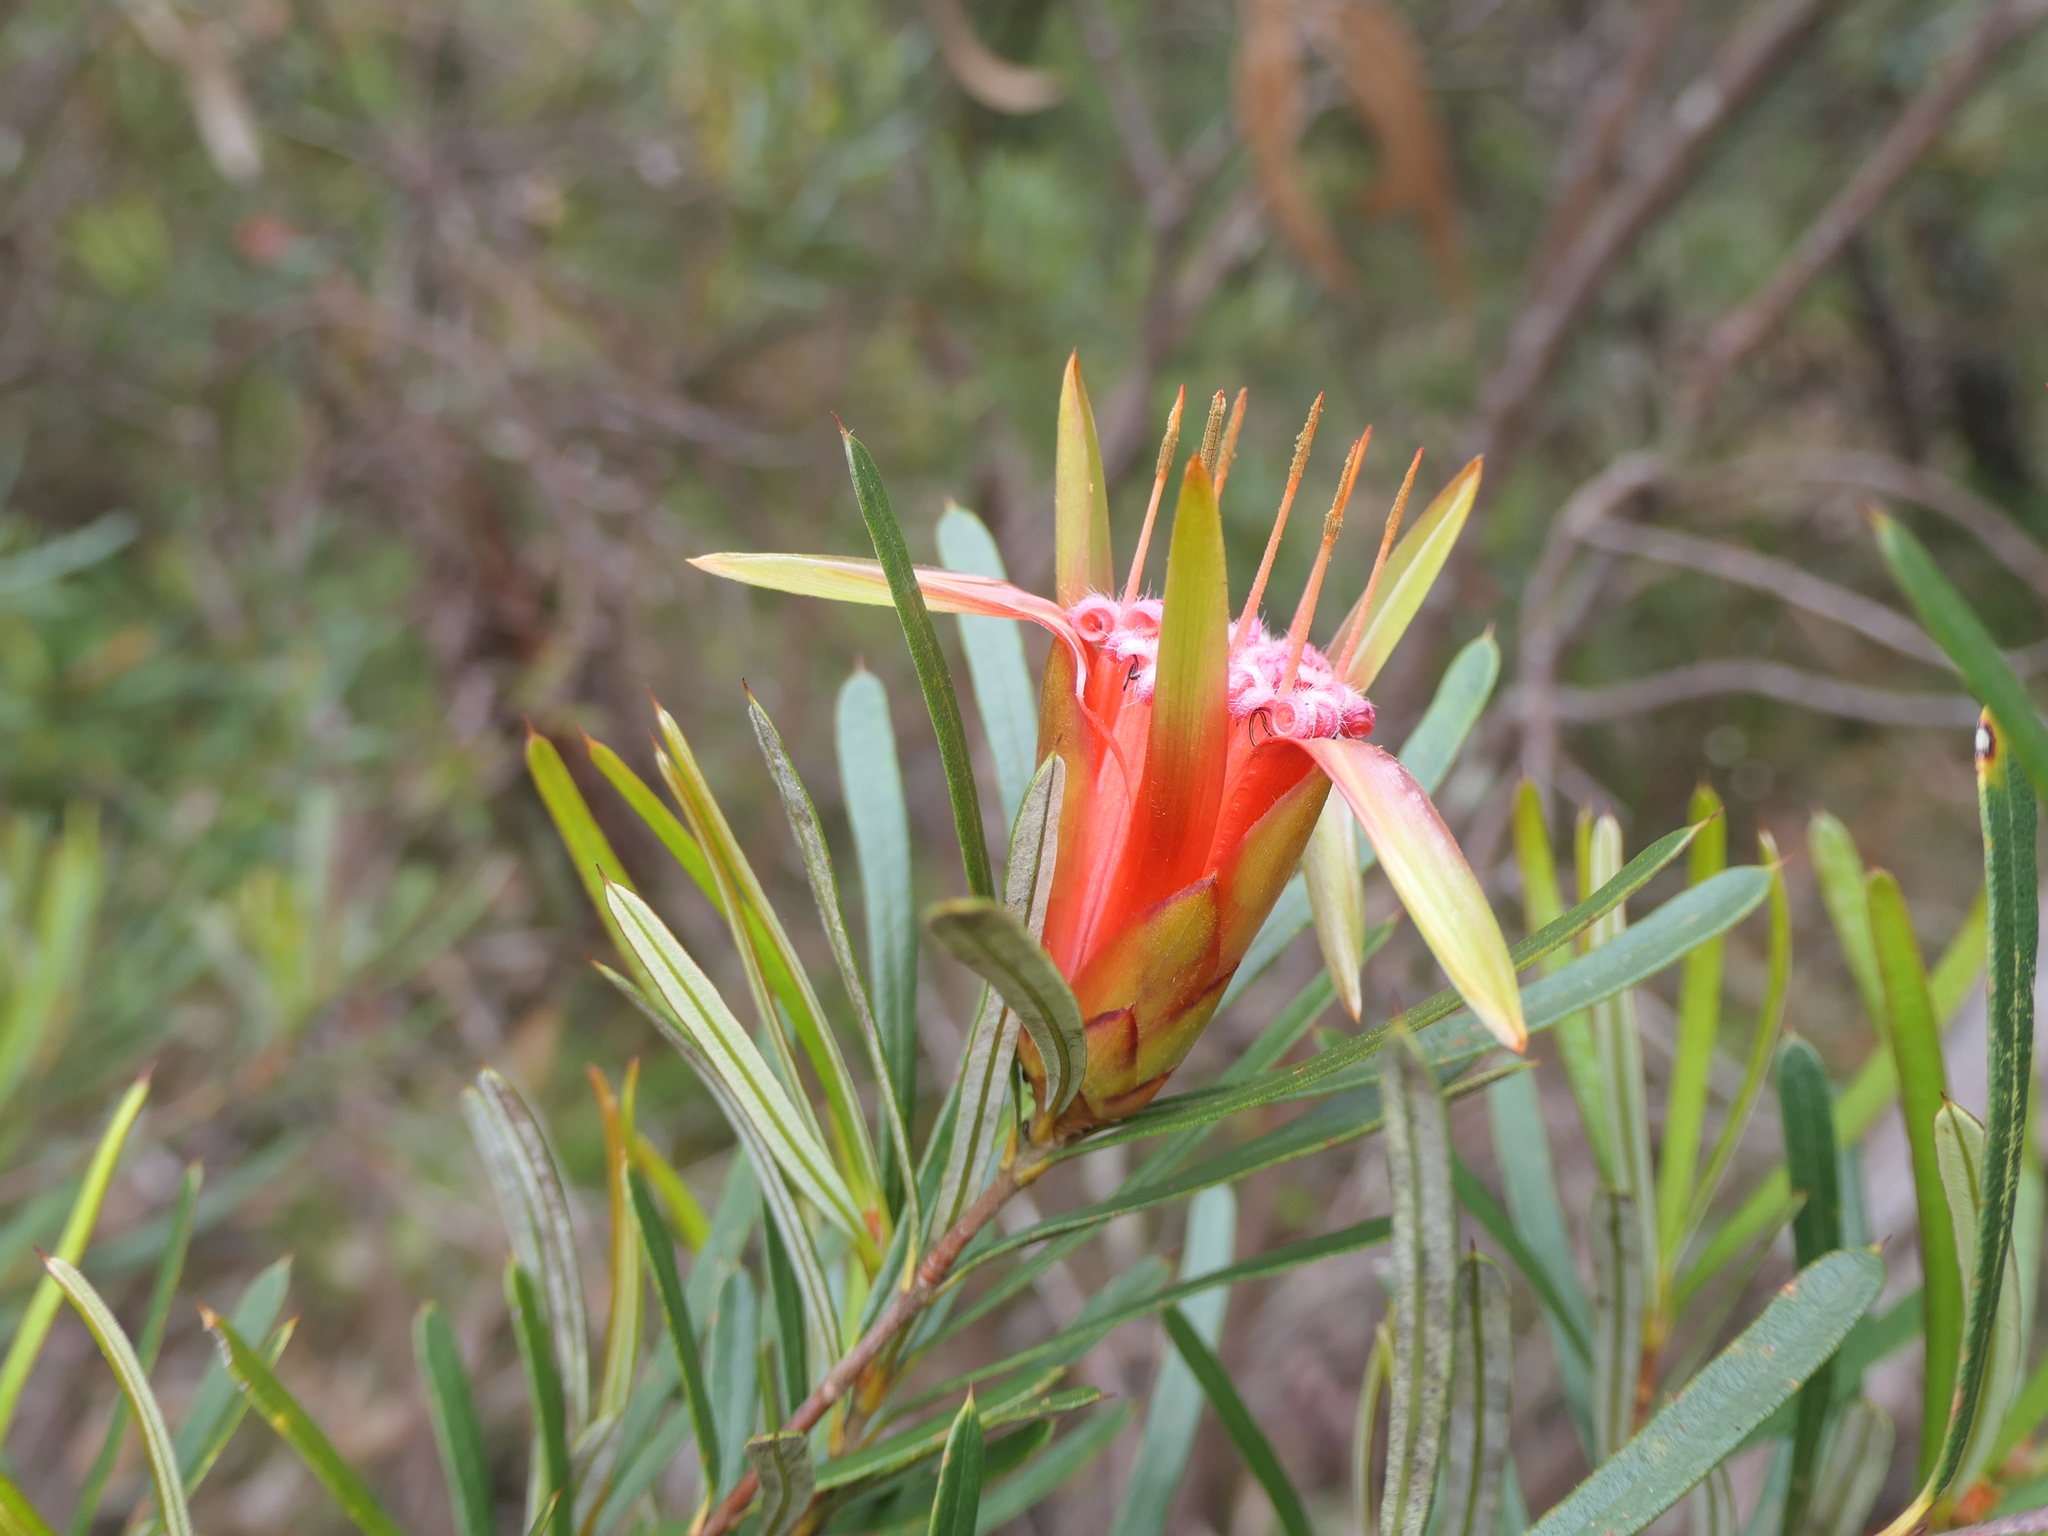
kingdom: Plantae
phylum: Tracheophyta
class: Magnoliopsida
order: Proteales
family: Proteaceae
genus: Lambertia
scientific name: Lambertia formosa
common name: Mountain-devil
